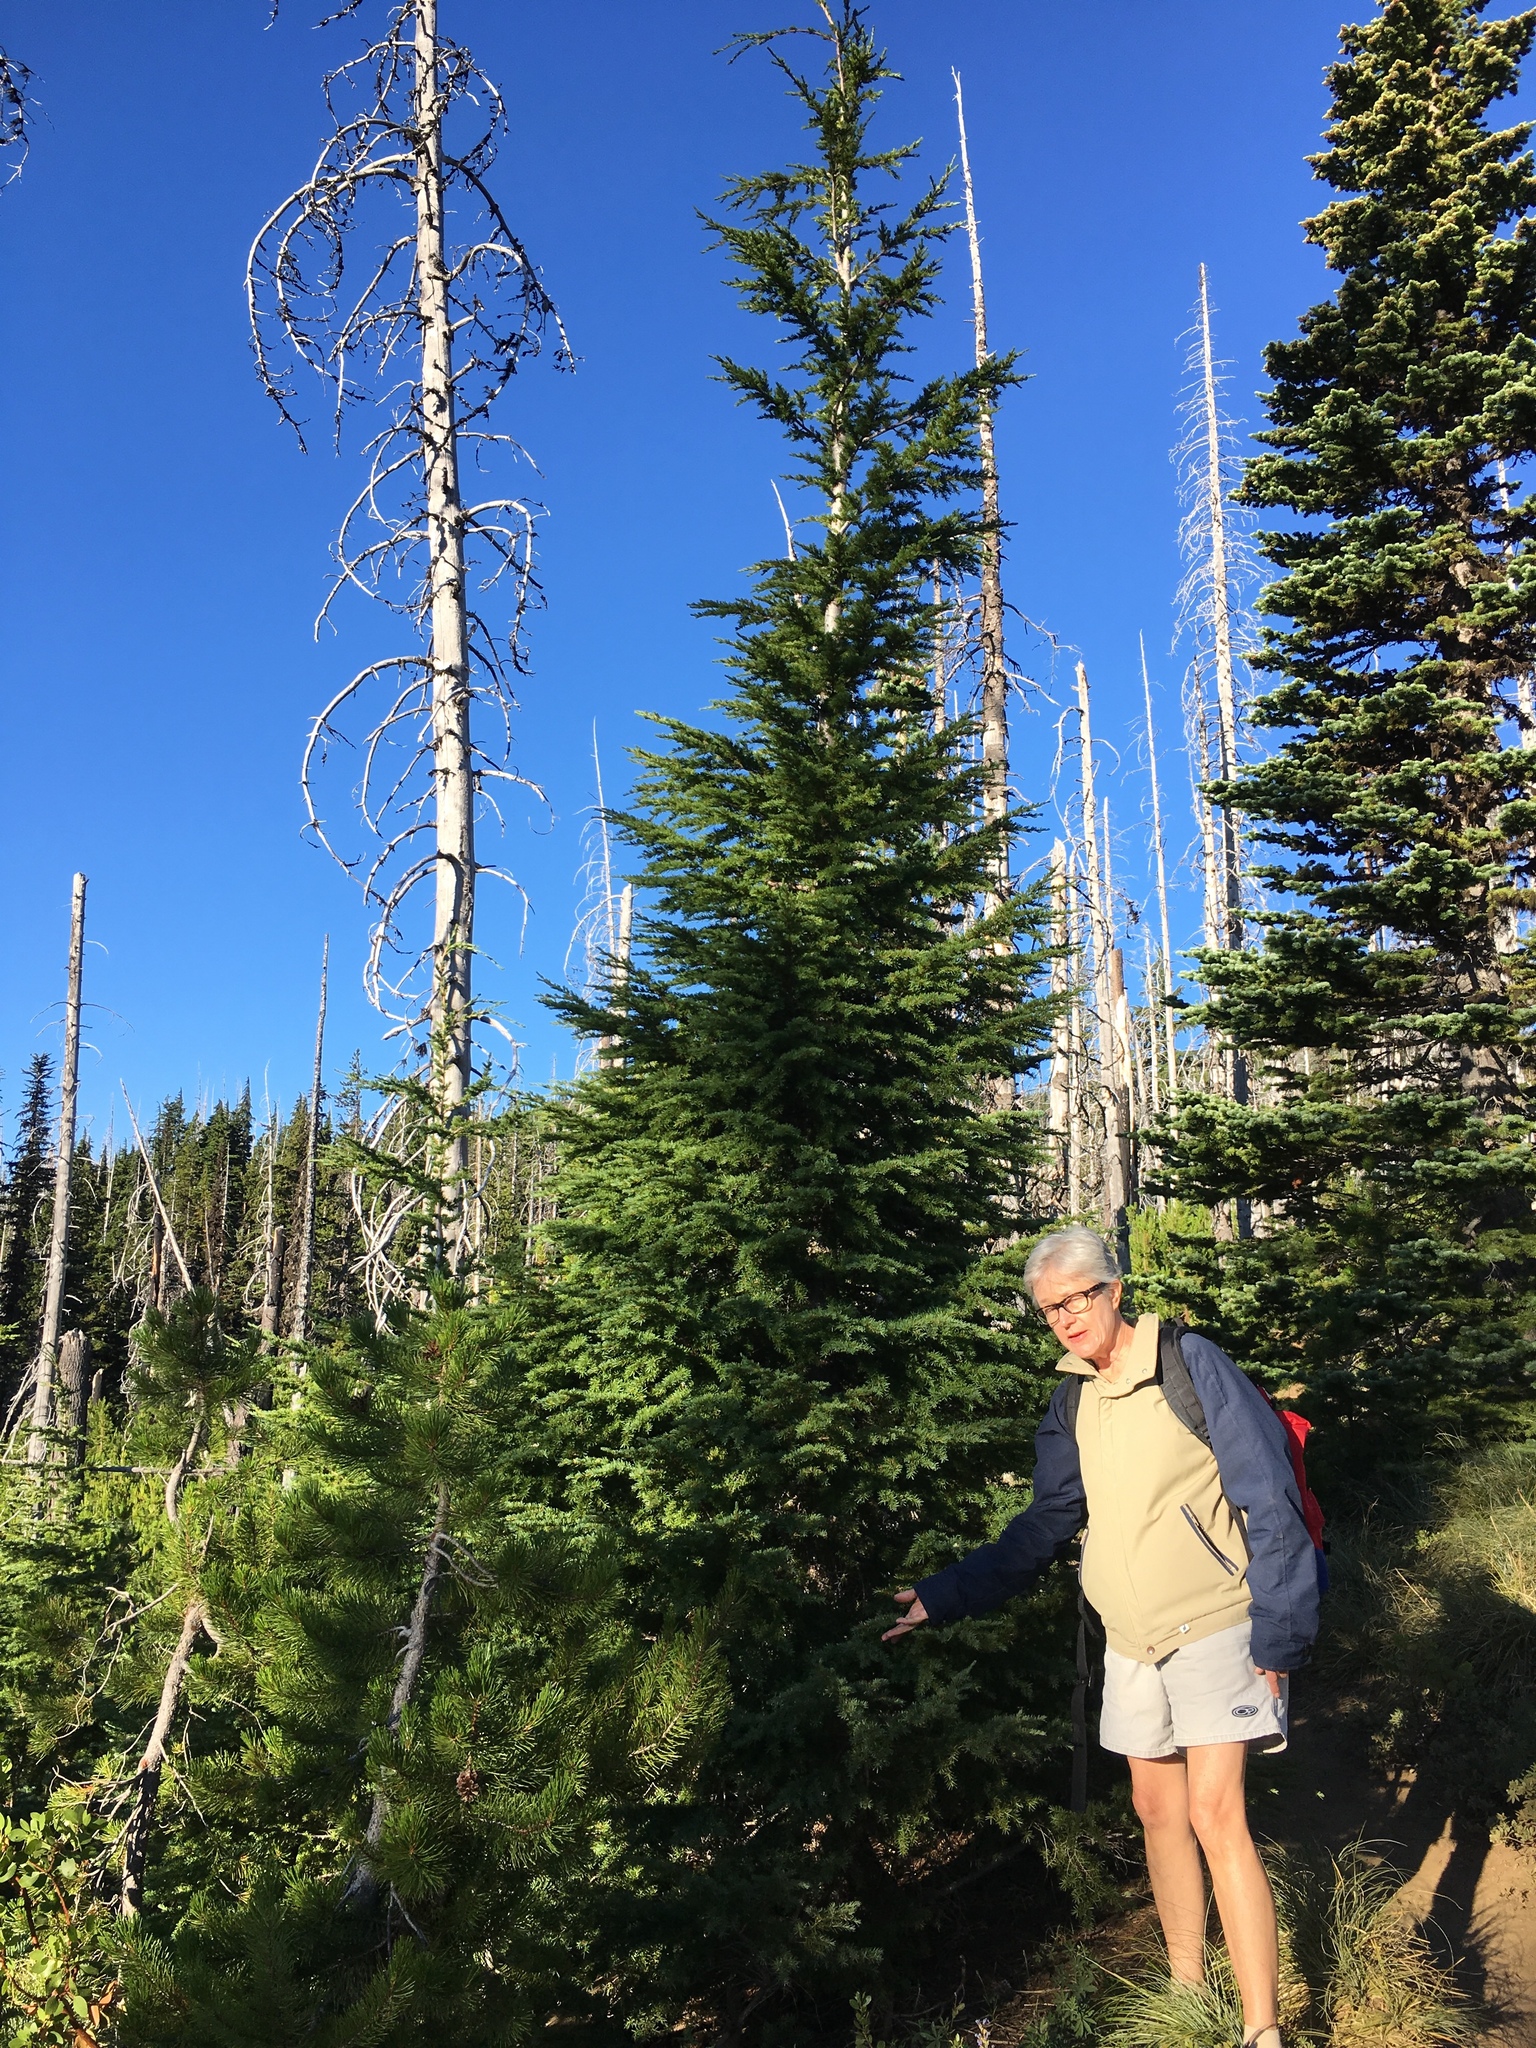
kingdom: Plantae
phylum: Tracheophyta
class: Pinopsida
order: Pinales
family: Pinaceae
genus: Tsuga
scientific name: Tsuga mertensiana
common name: Mountain hemlock
